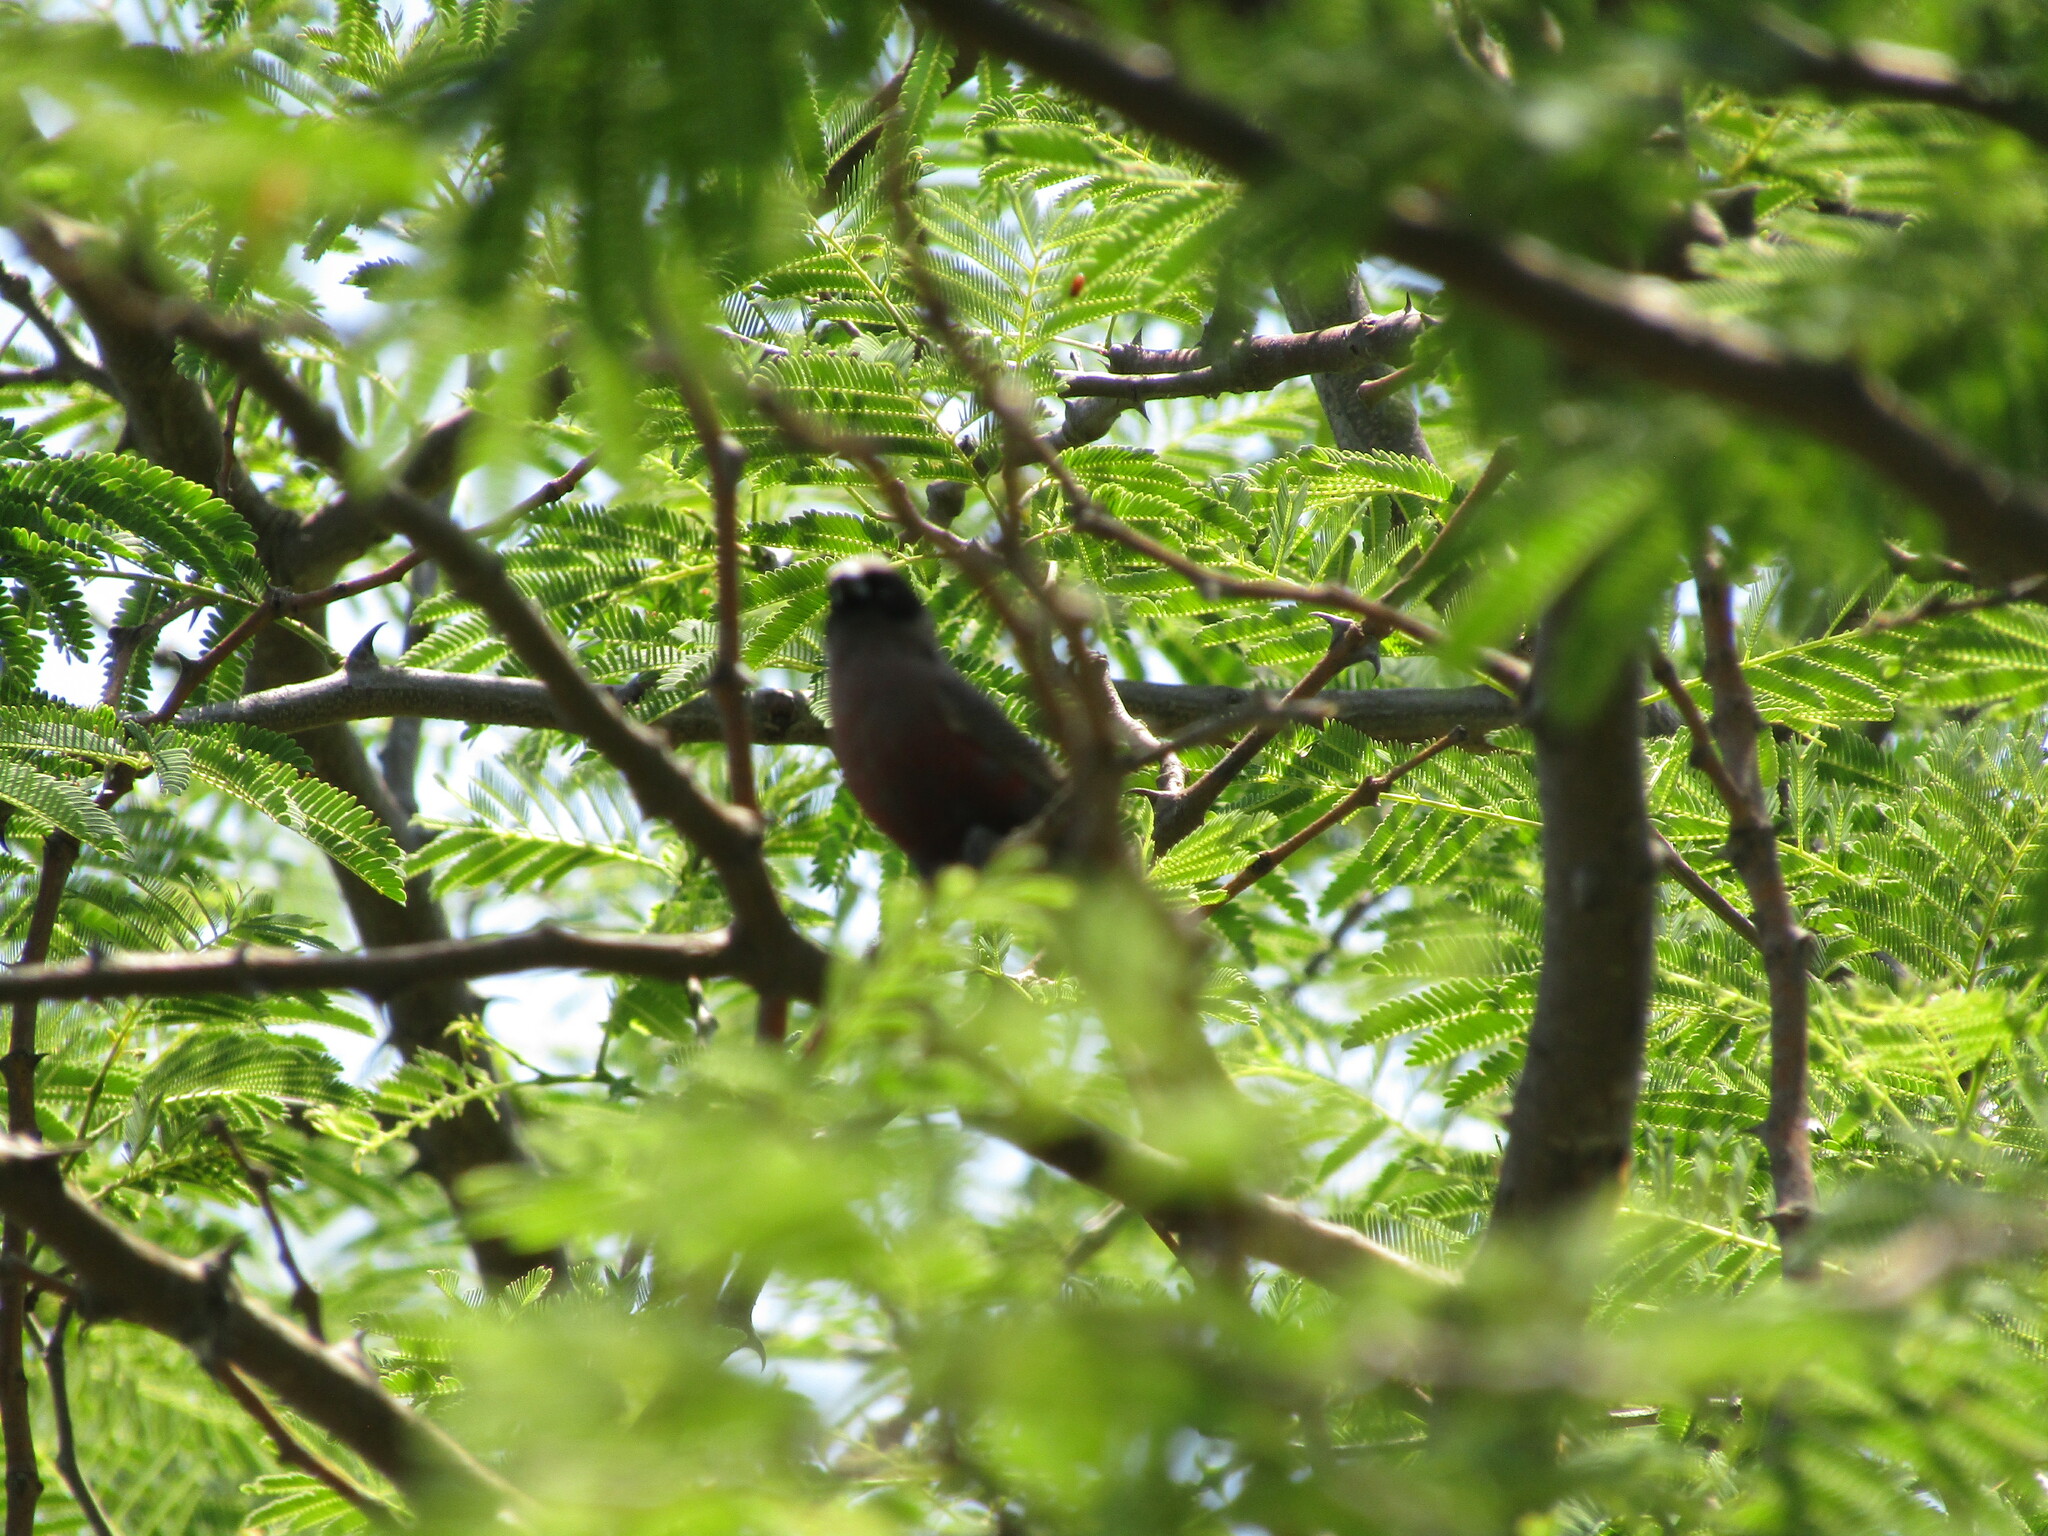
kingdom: Animalia
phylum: Chordata
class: Aves
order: Passeriformes
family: Estrildidae
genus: Estrilda
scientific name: Estrilda erythronotos
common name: Black-faced waxbill
